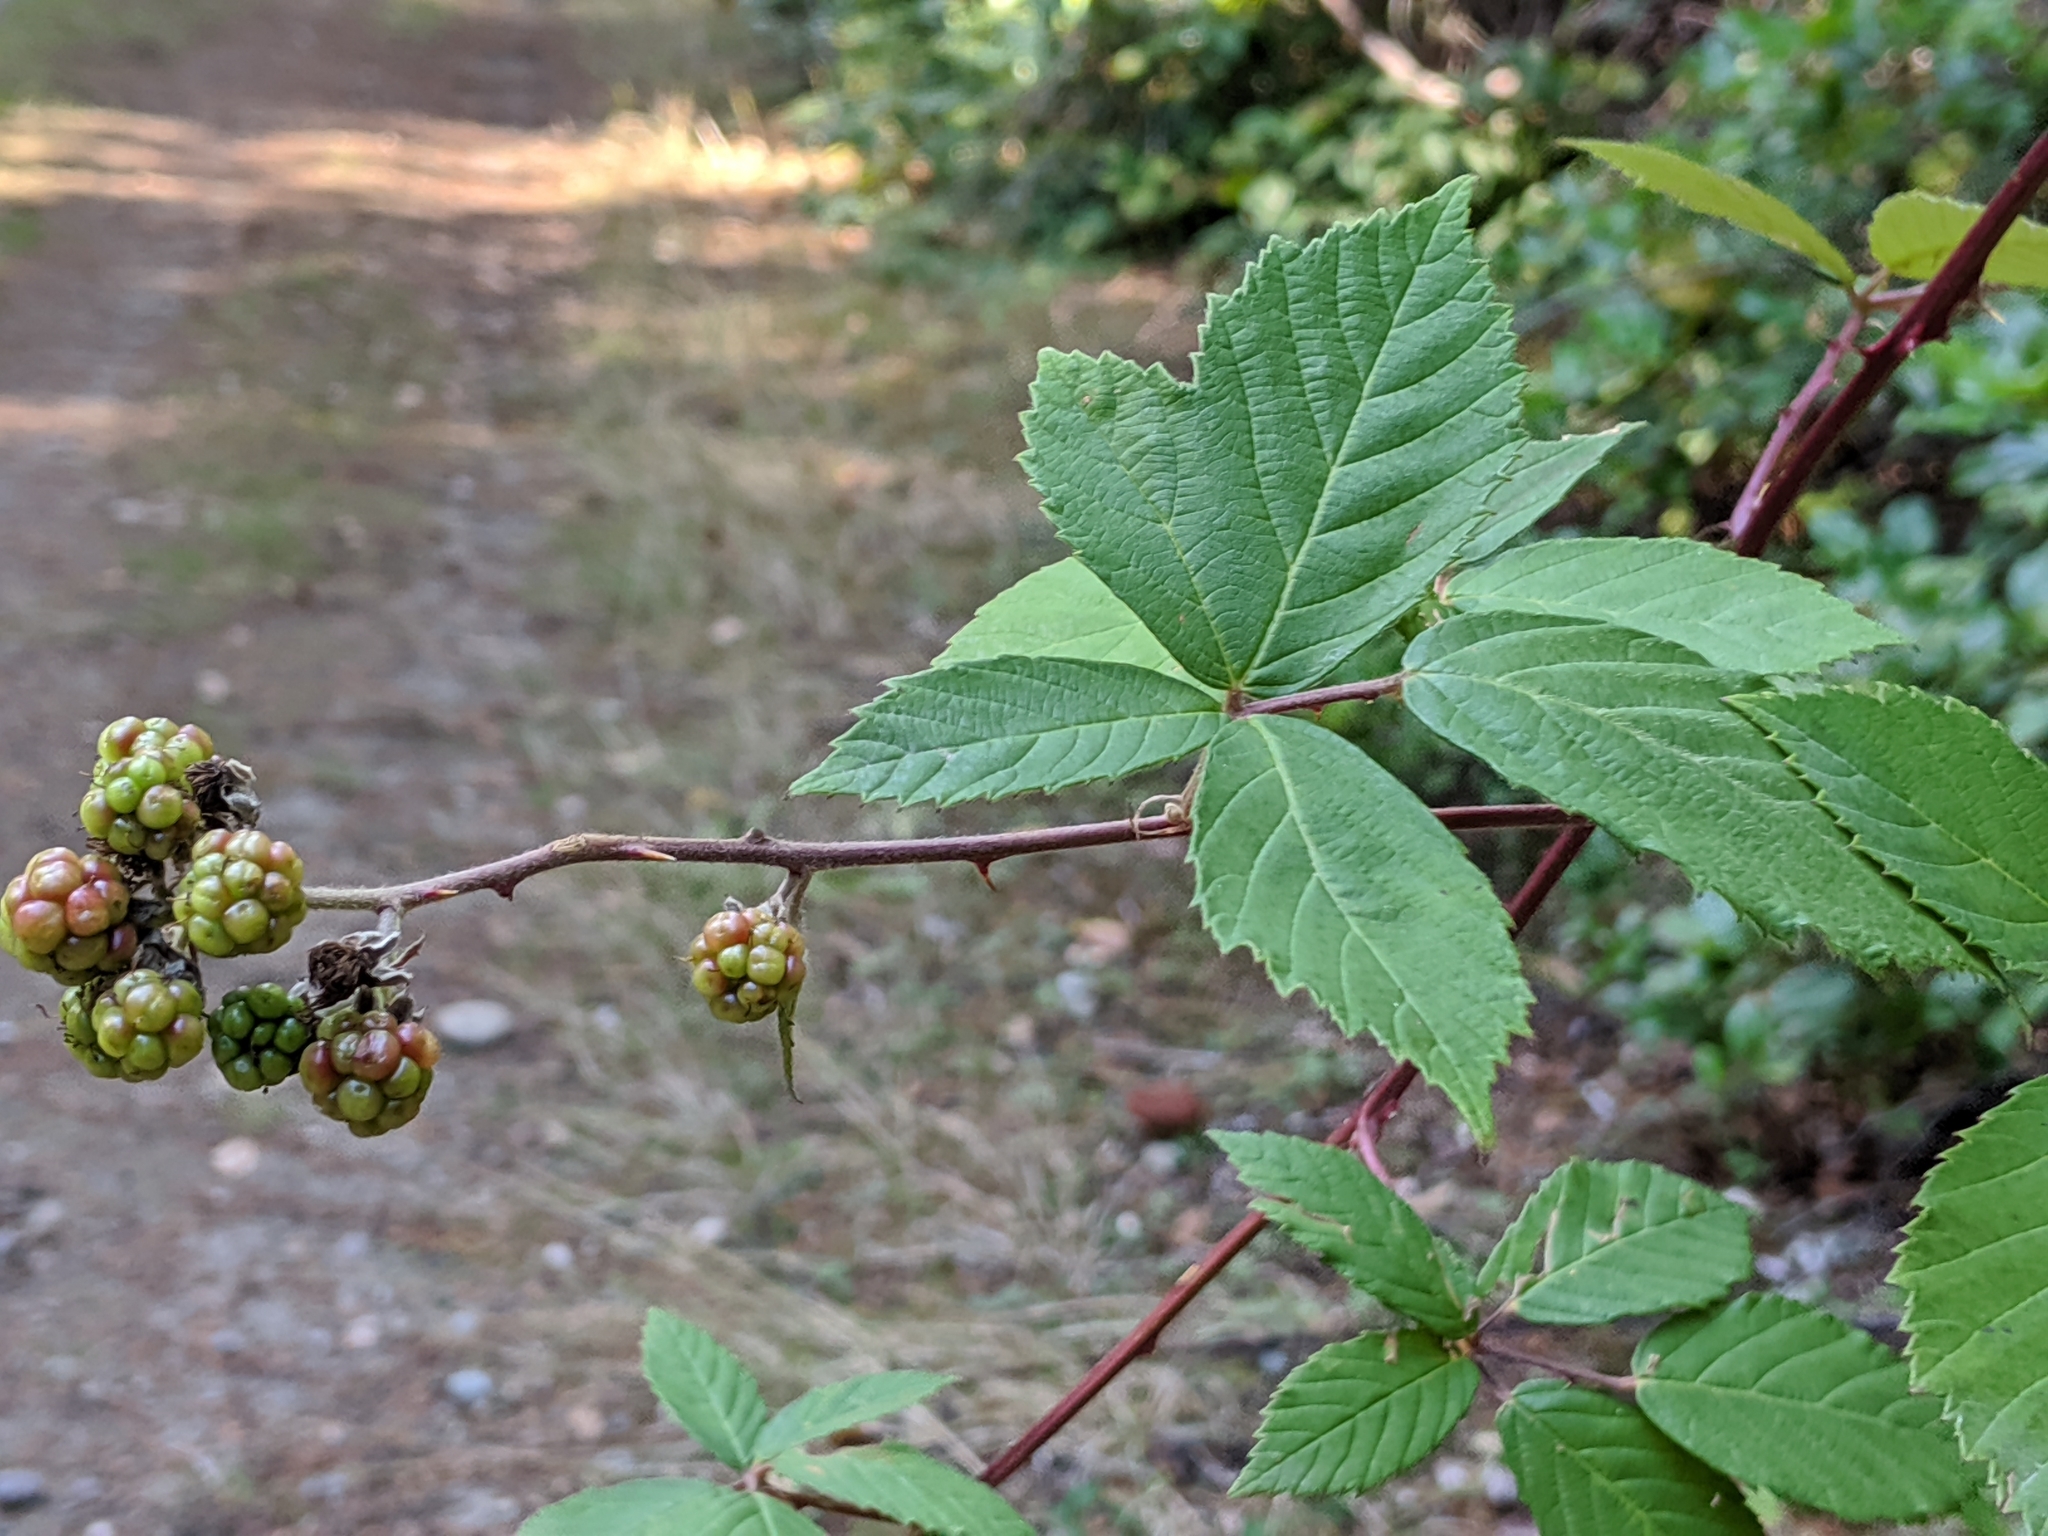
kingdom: Plantae
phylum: Tracheophyta
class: Magnoliopsida
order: Rosales
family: Rosaceae
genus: Rubus
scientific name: Rubus bifrons
